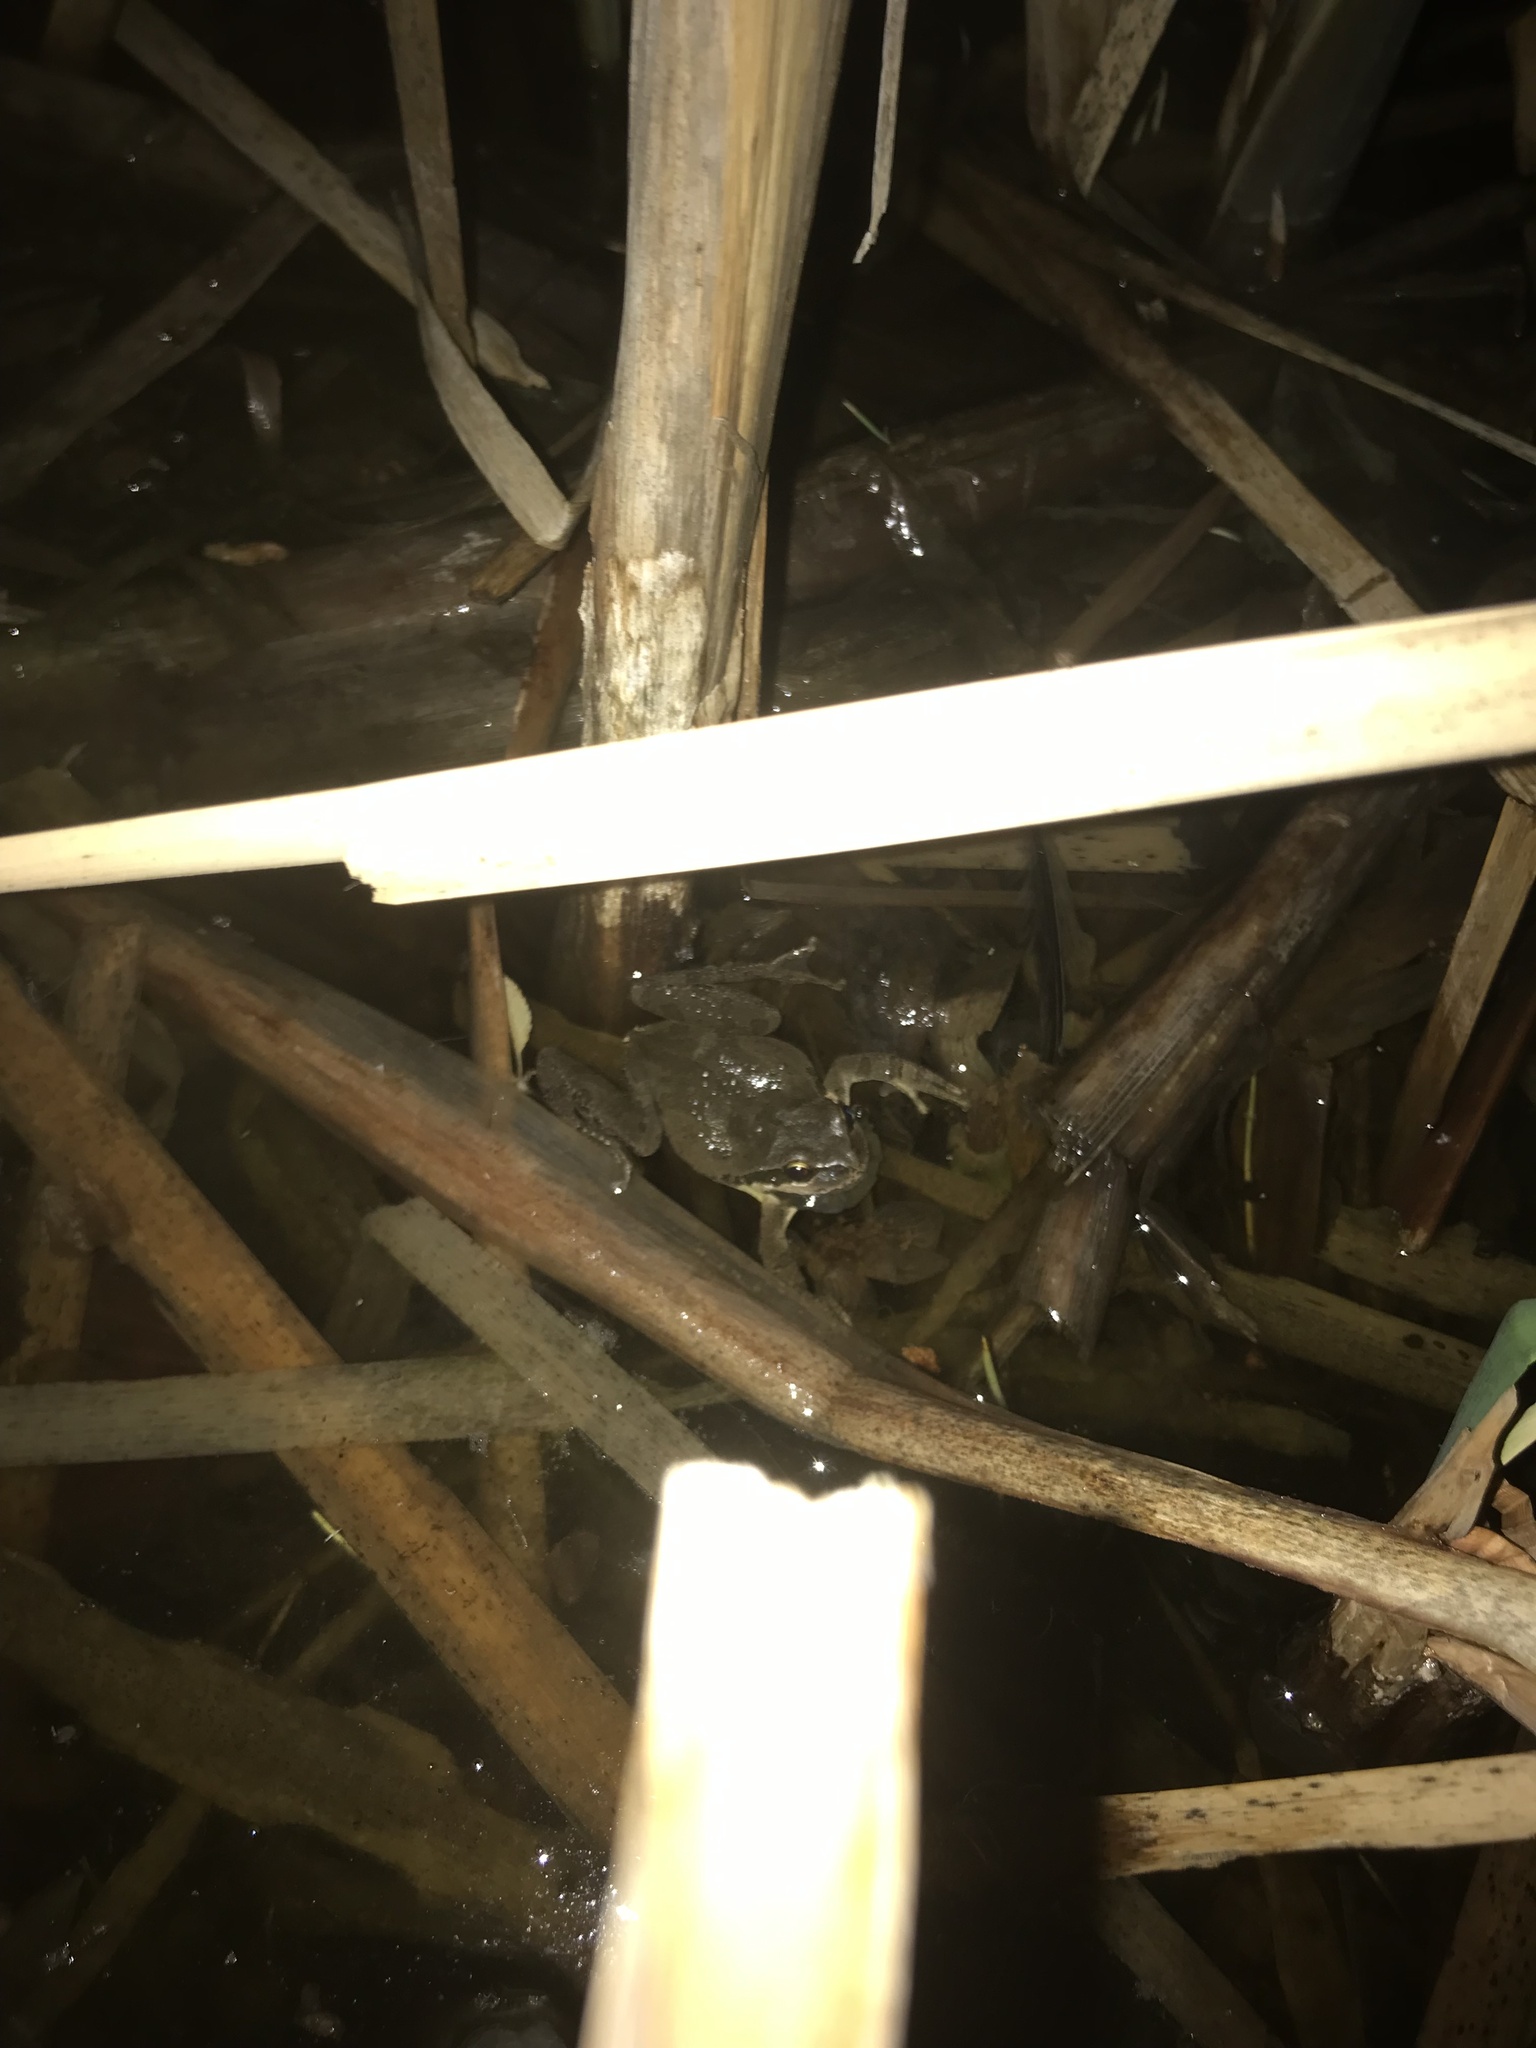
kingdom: Animalia
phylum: Chordata
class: Amphibia
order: Anura
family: Hylidae
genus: Pseudacris
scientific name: Pseudacris regilla
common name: Pacific chorus frog
